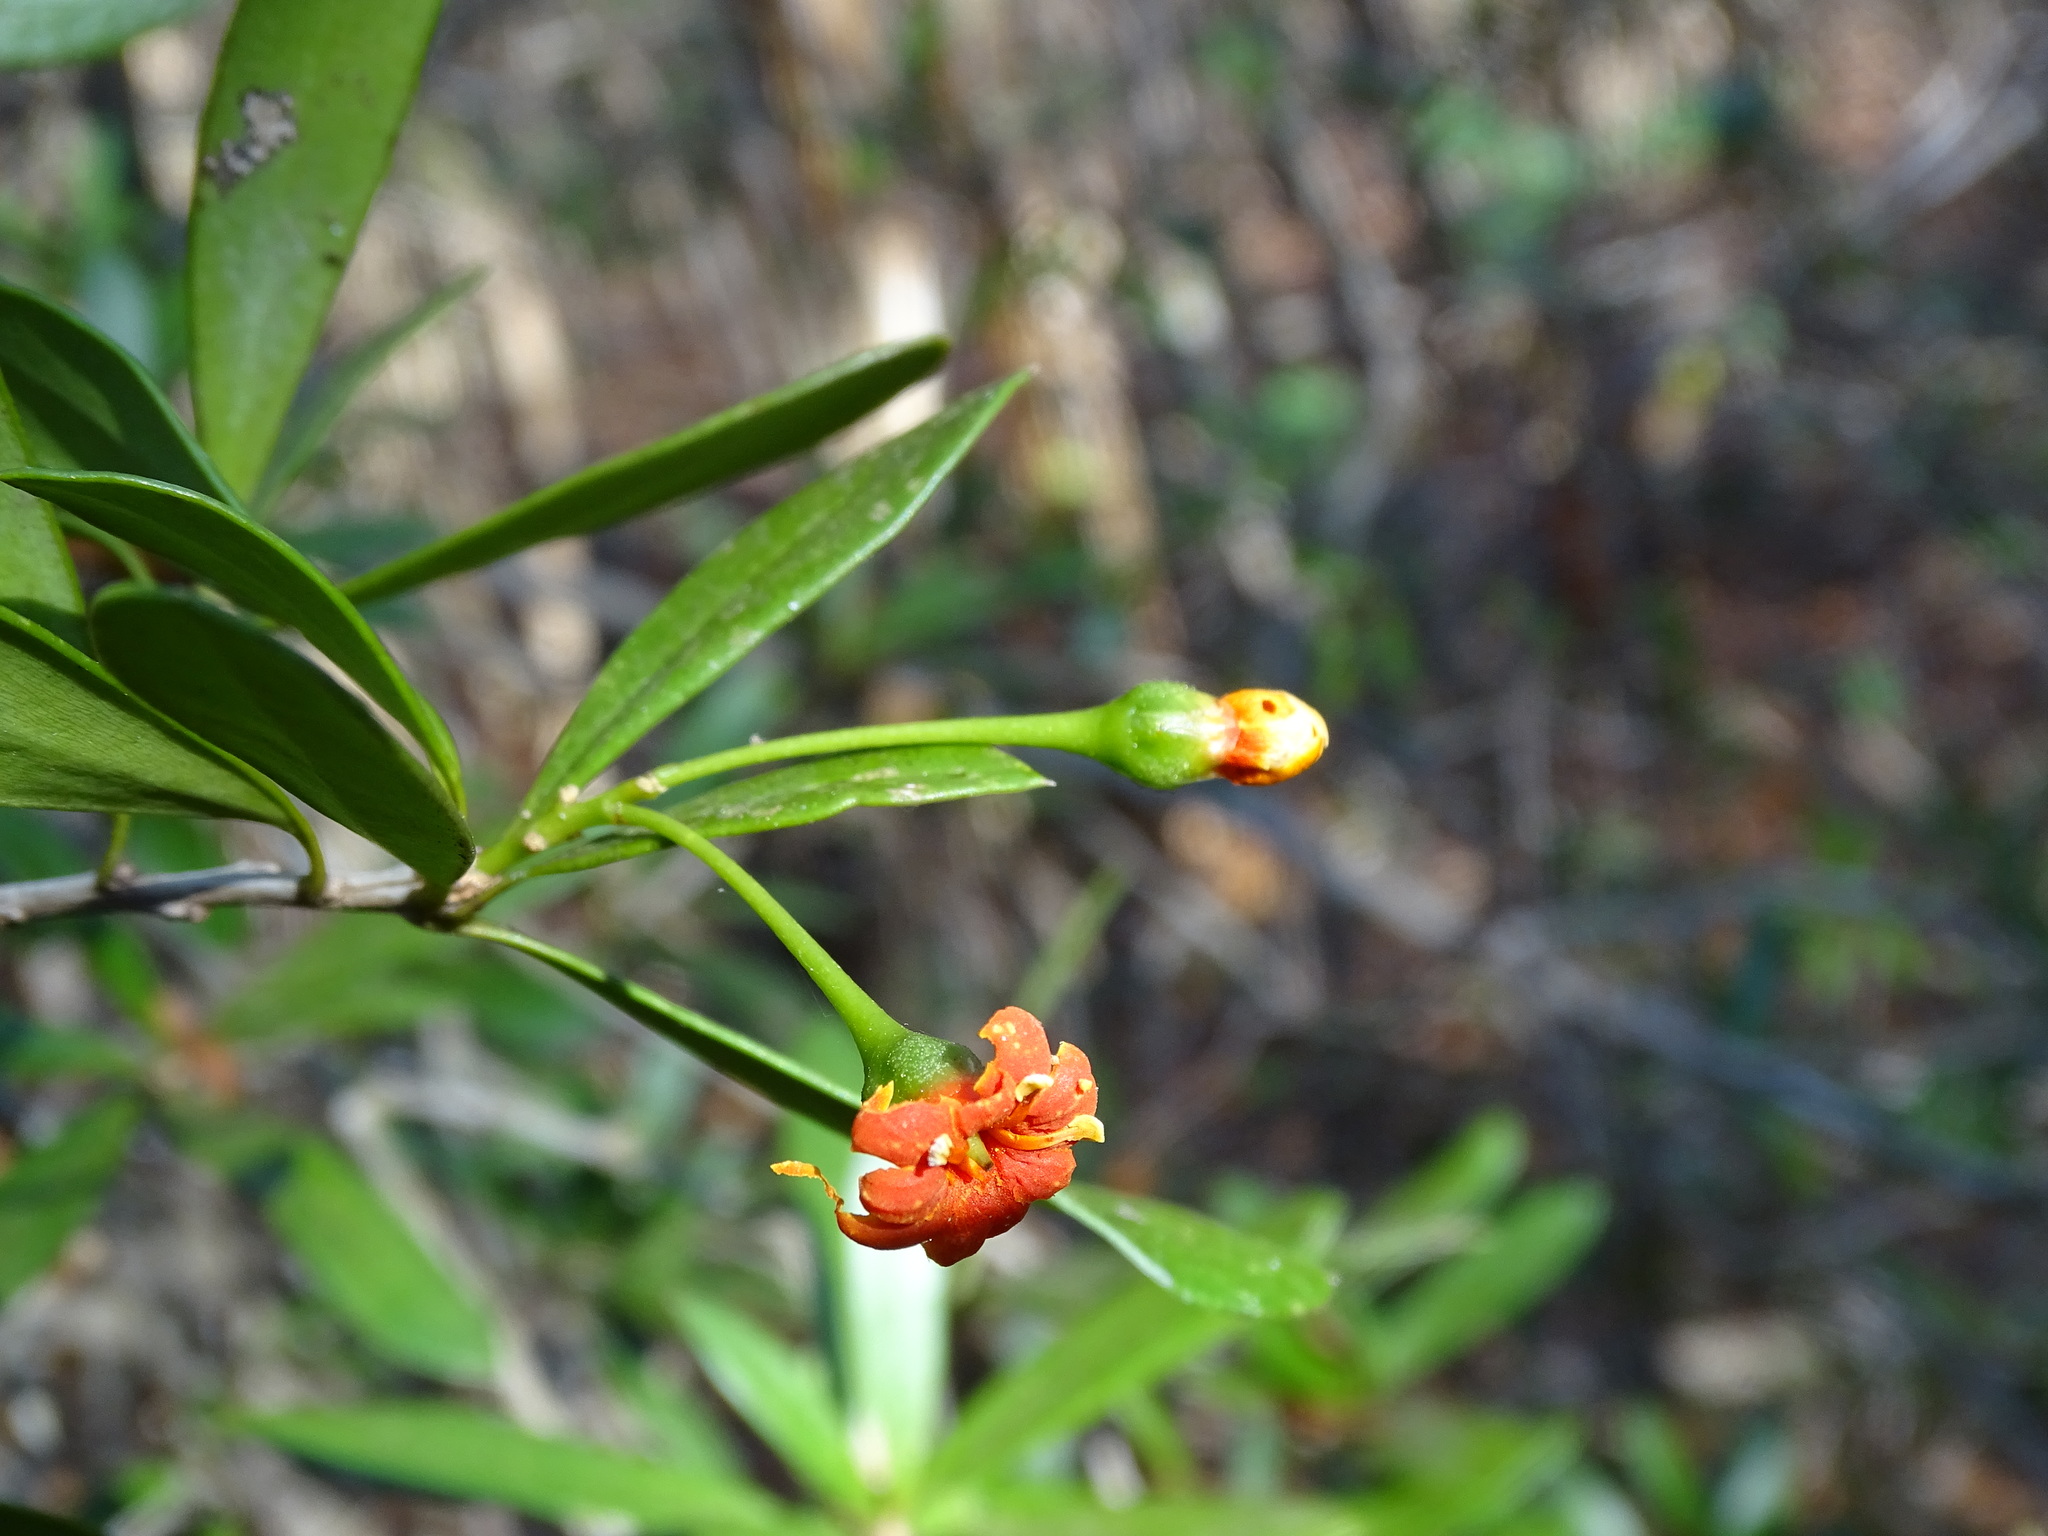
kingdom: Plantae
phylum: Tracheophyta
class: Magnoliopsida
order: Ericales
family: Primulaceae
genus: Bonellia
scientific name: Bonellia flammea
